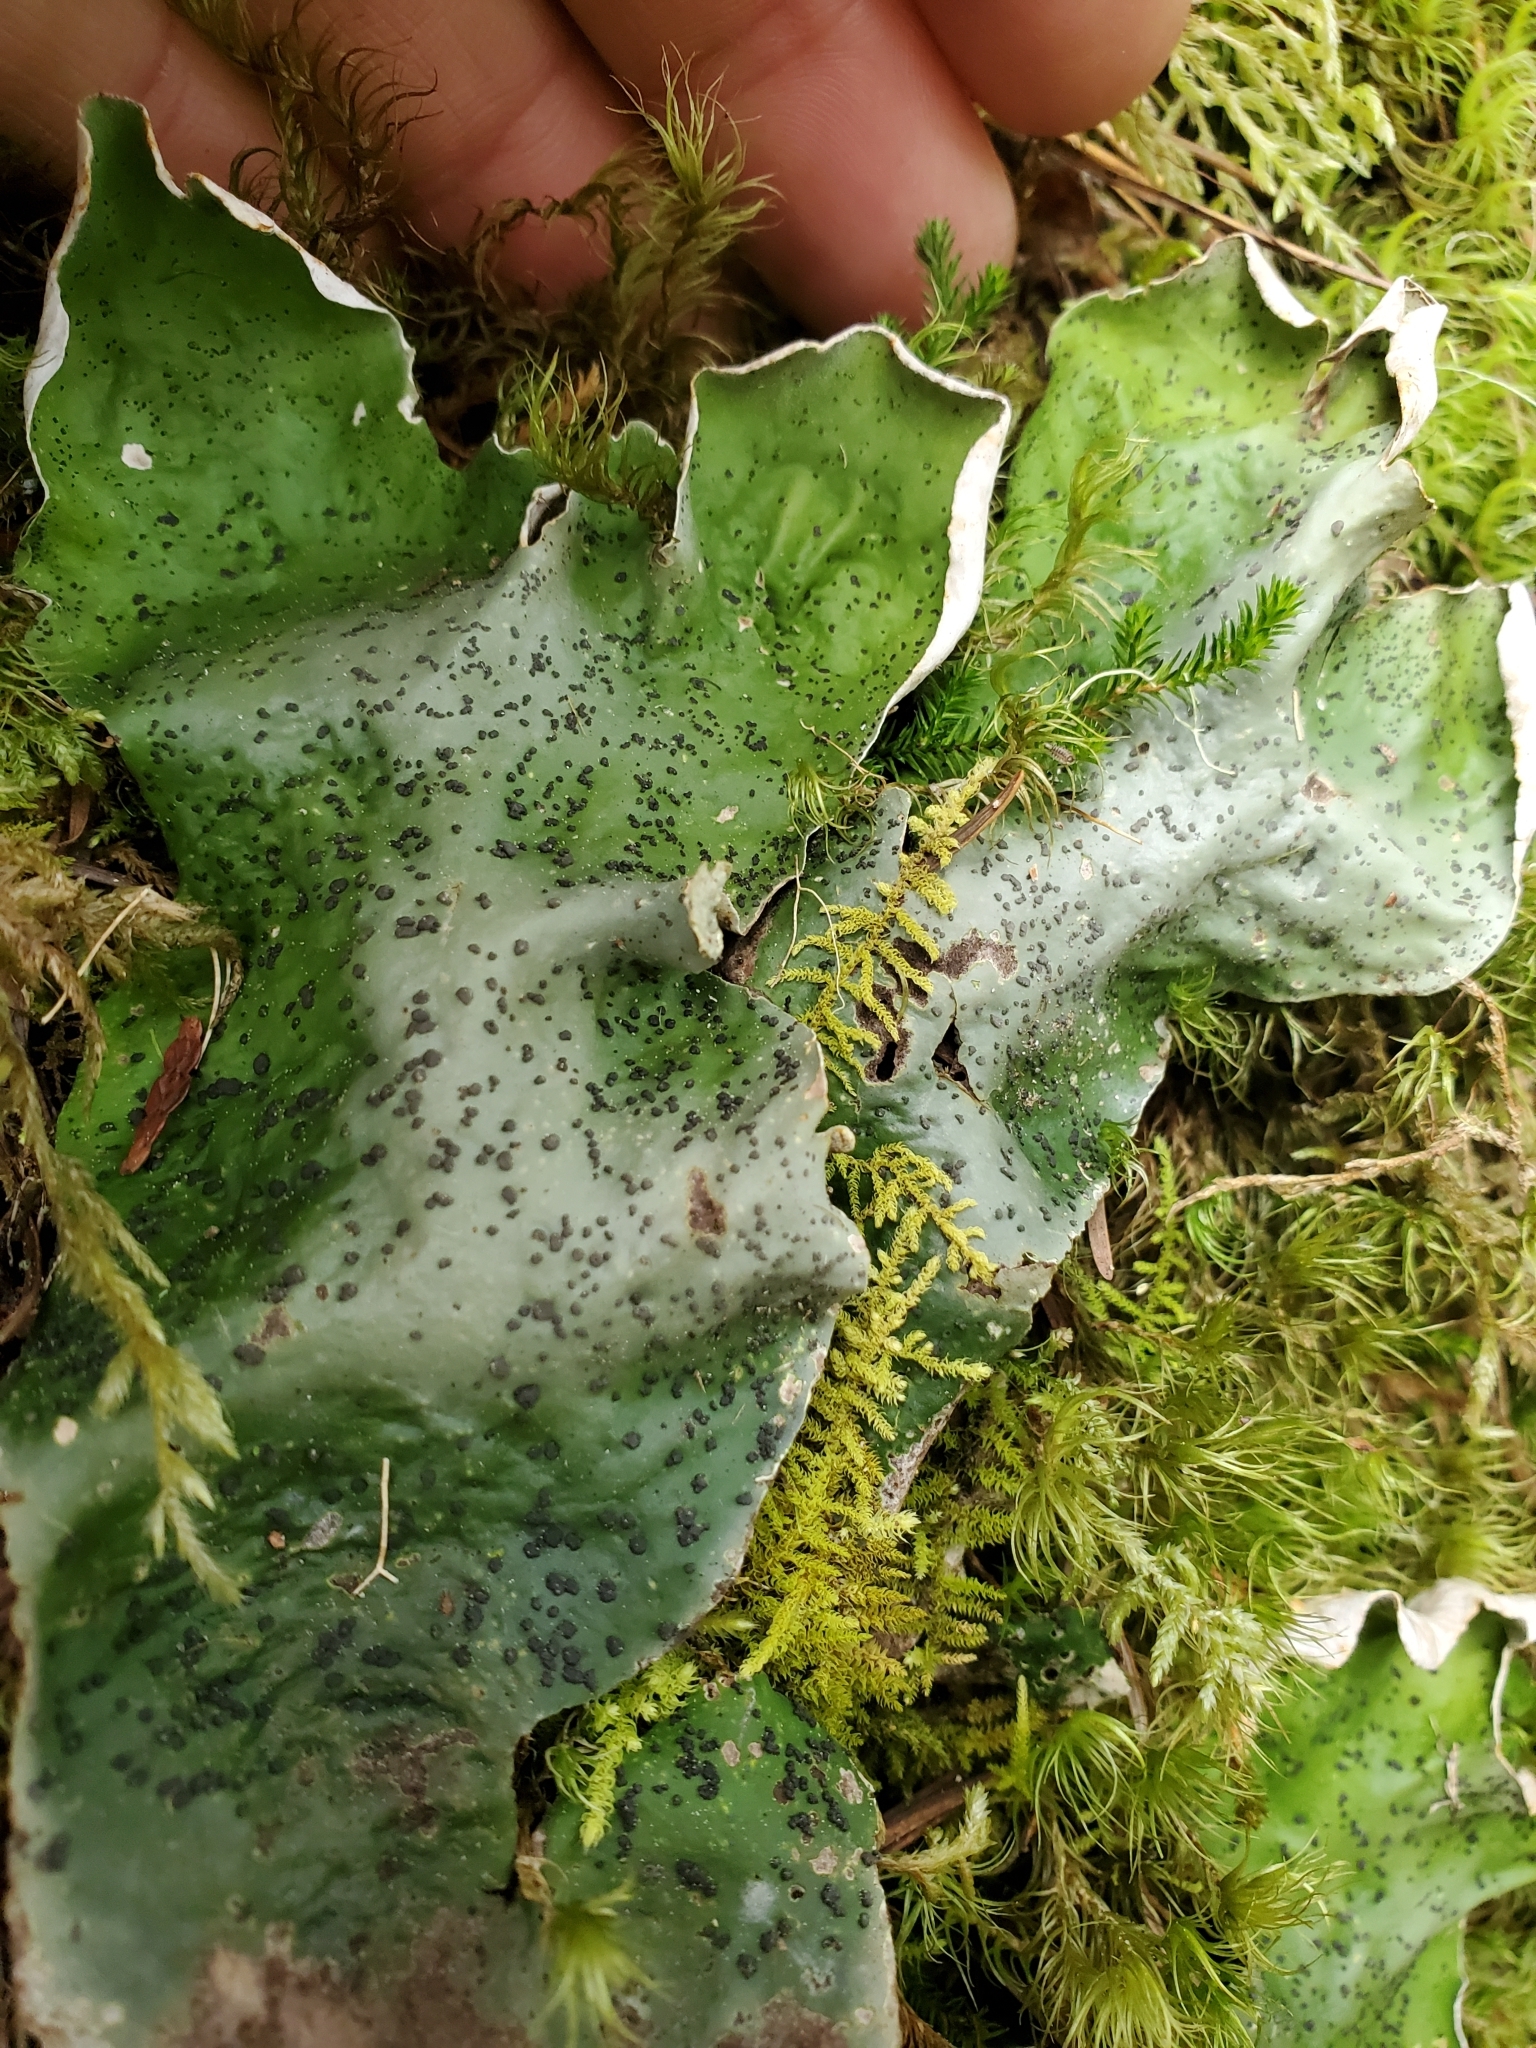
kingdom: Fungi
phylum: Ascomycota
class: Lecanoromycetes
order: Peltigerales
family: Peltigeraceae
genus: Peltigera
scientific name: Peltigera aphthosa
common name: Common freckle pelt lichen
